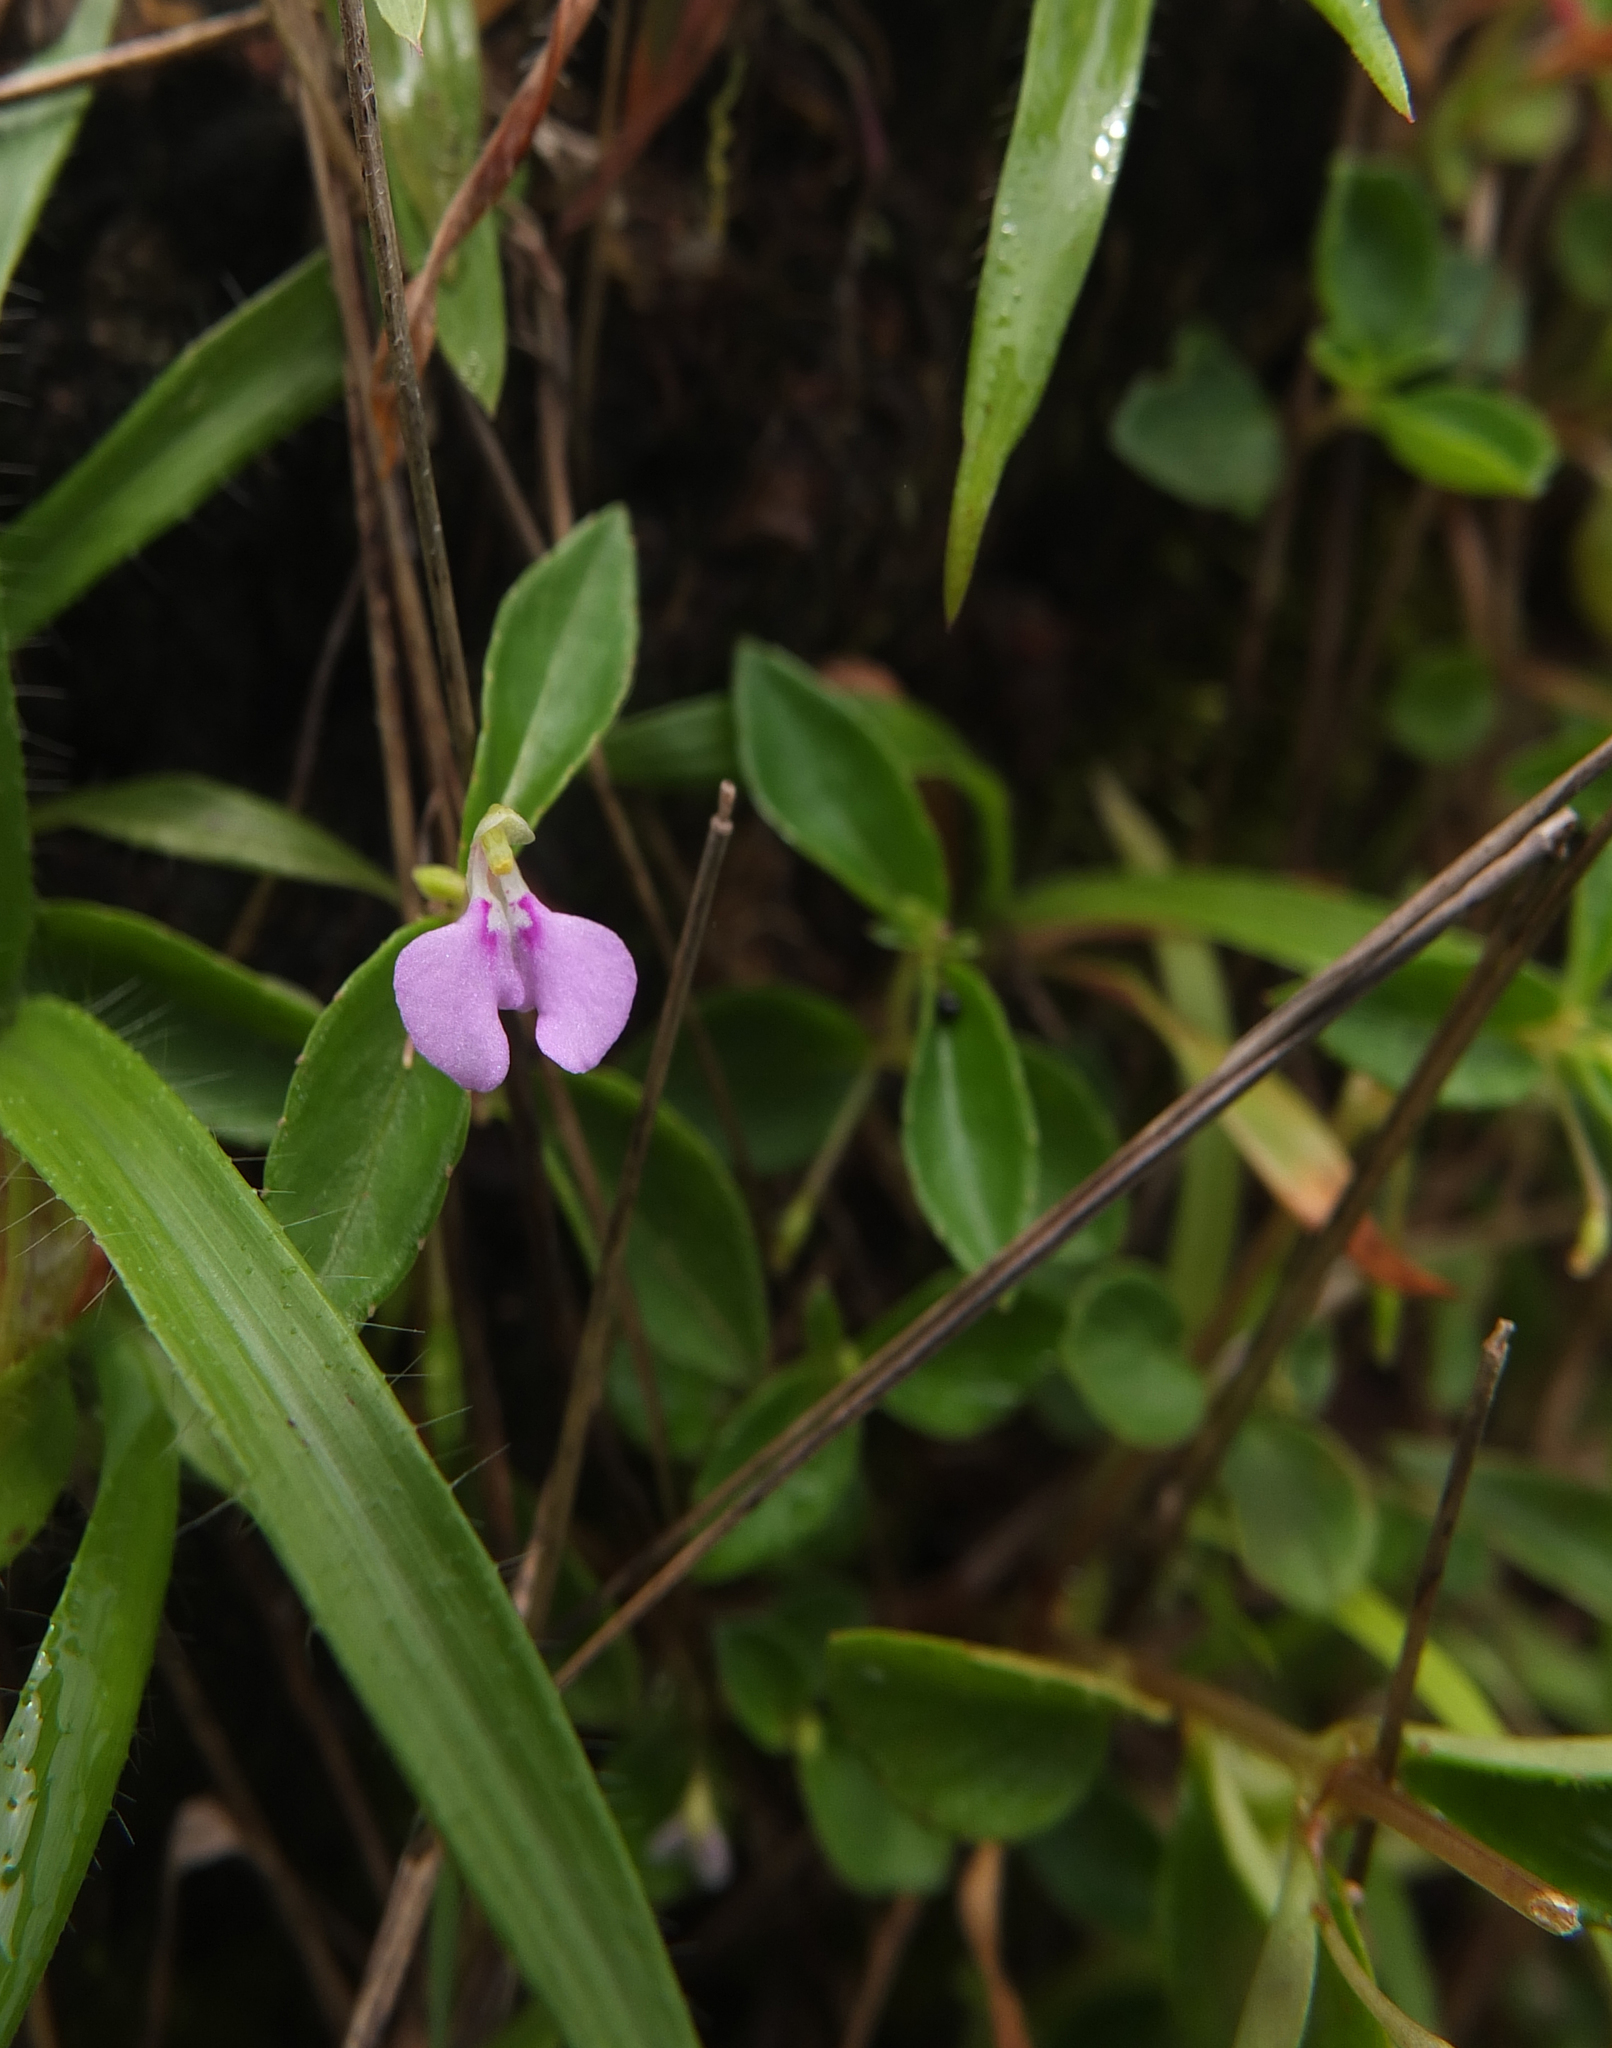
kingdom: Plantae
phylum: Tracheophyta
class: Magnoliopsida
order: Ericales
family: Balsaminaceae
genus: Impatiens
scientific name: Impatiens minor
